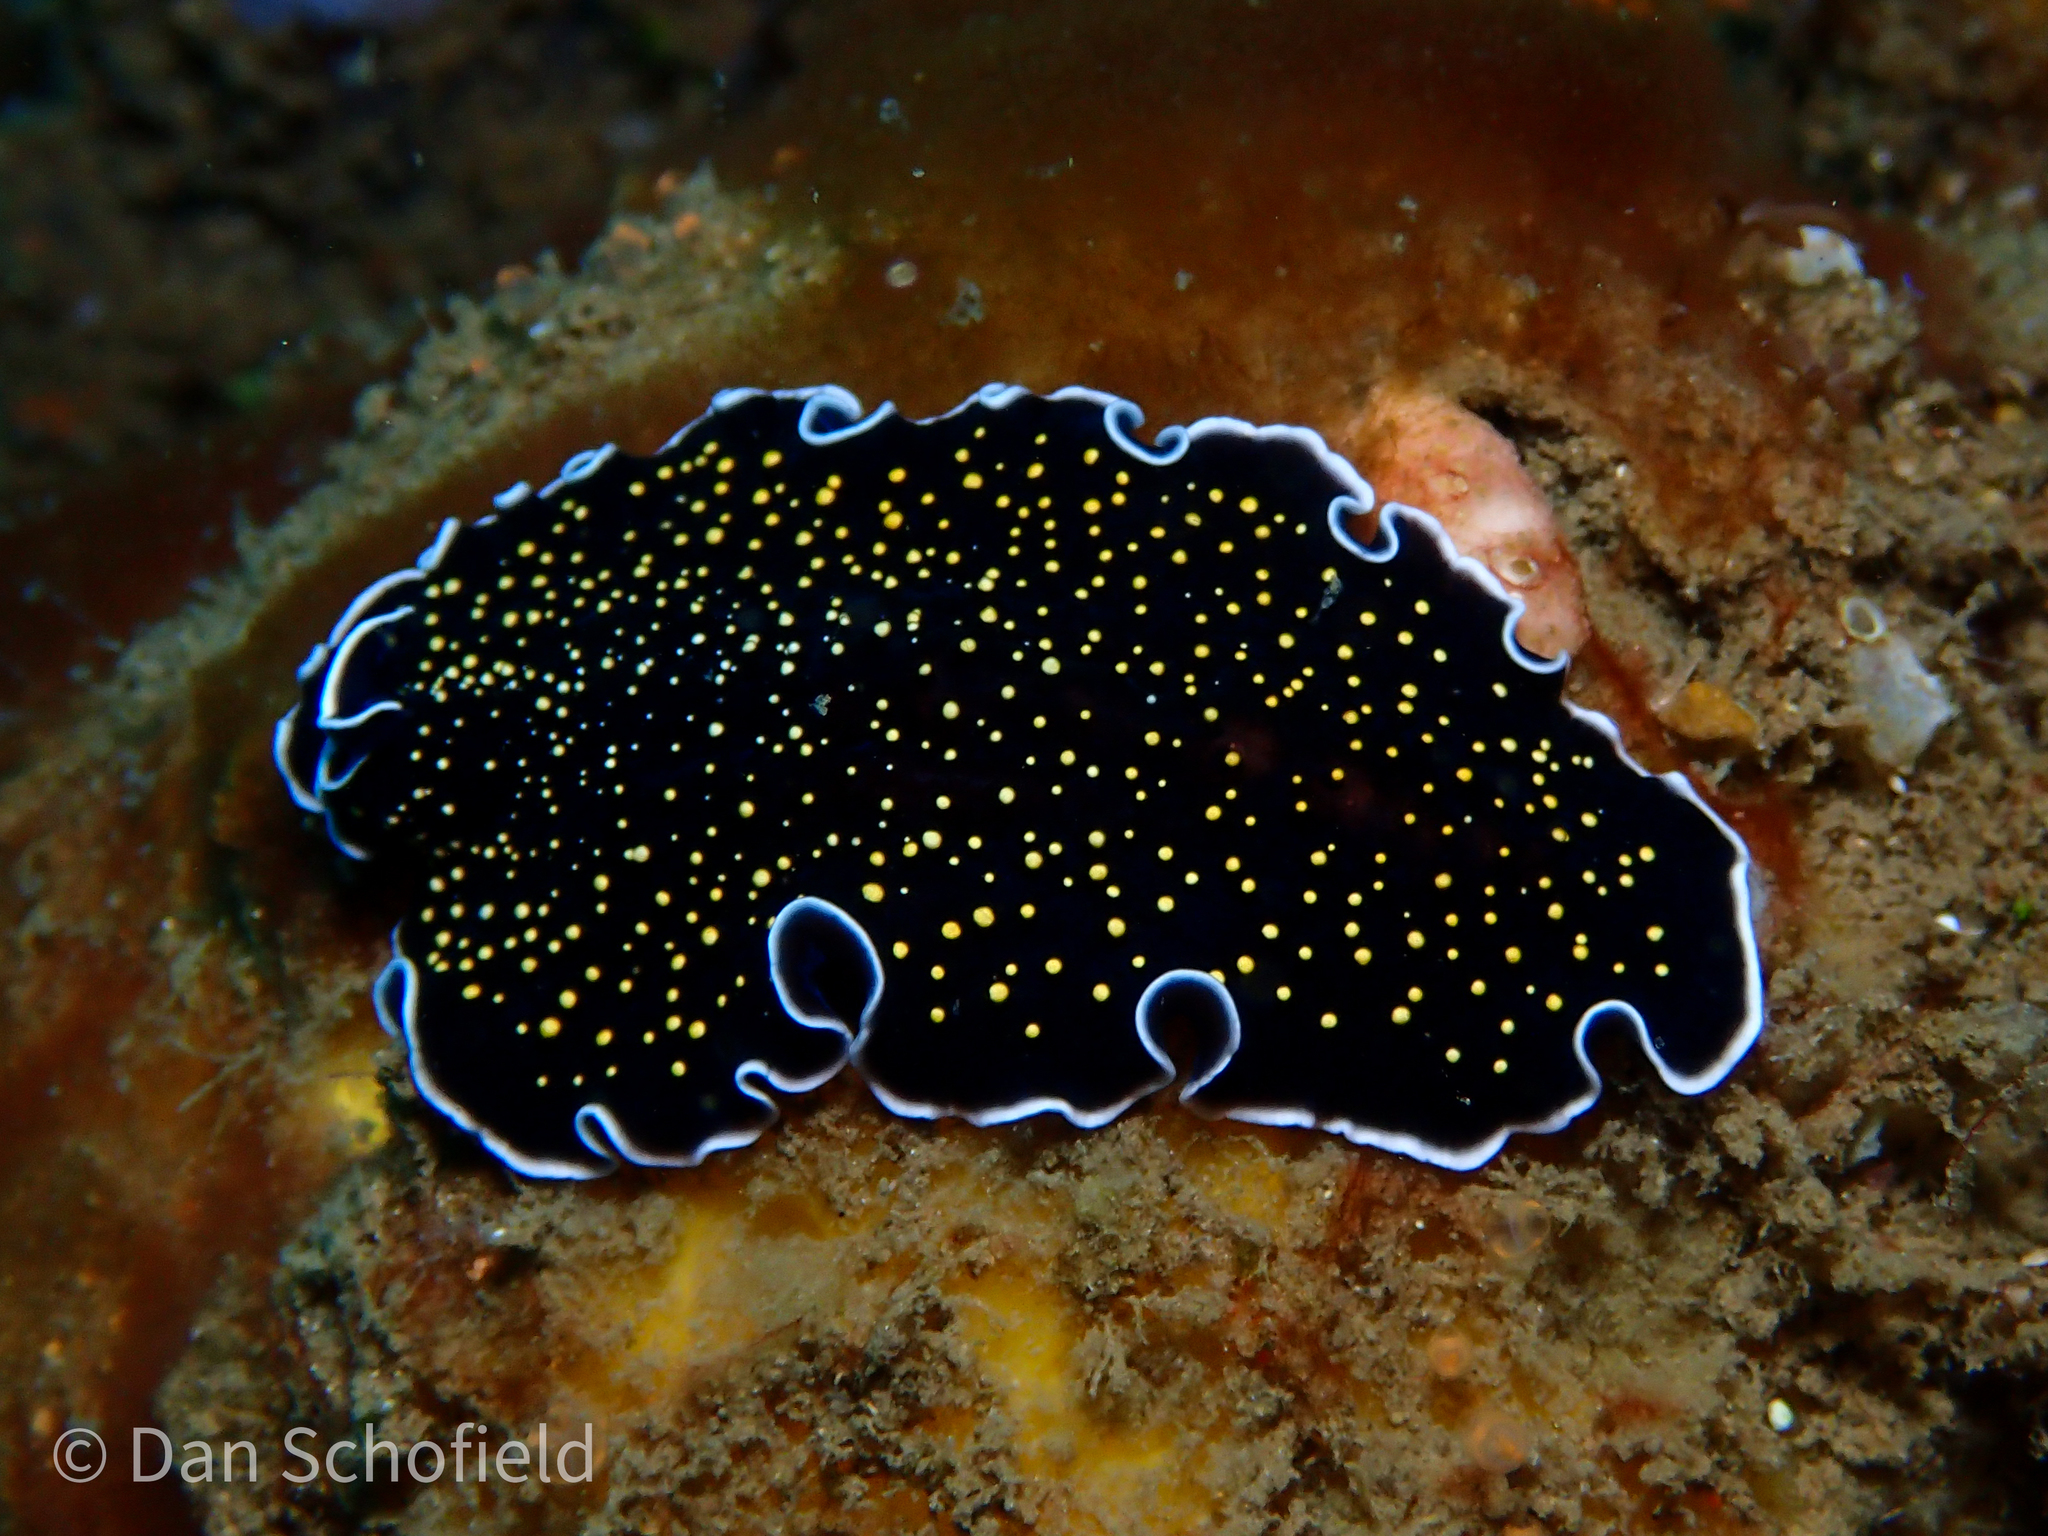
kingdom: Animalia
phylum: Platyhelminthes
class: Turbellaria
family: Pseudocerotidae
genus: Thysanozoon
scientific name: Thysanozoon nigropapillosum
